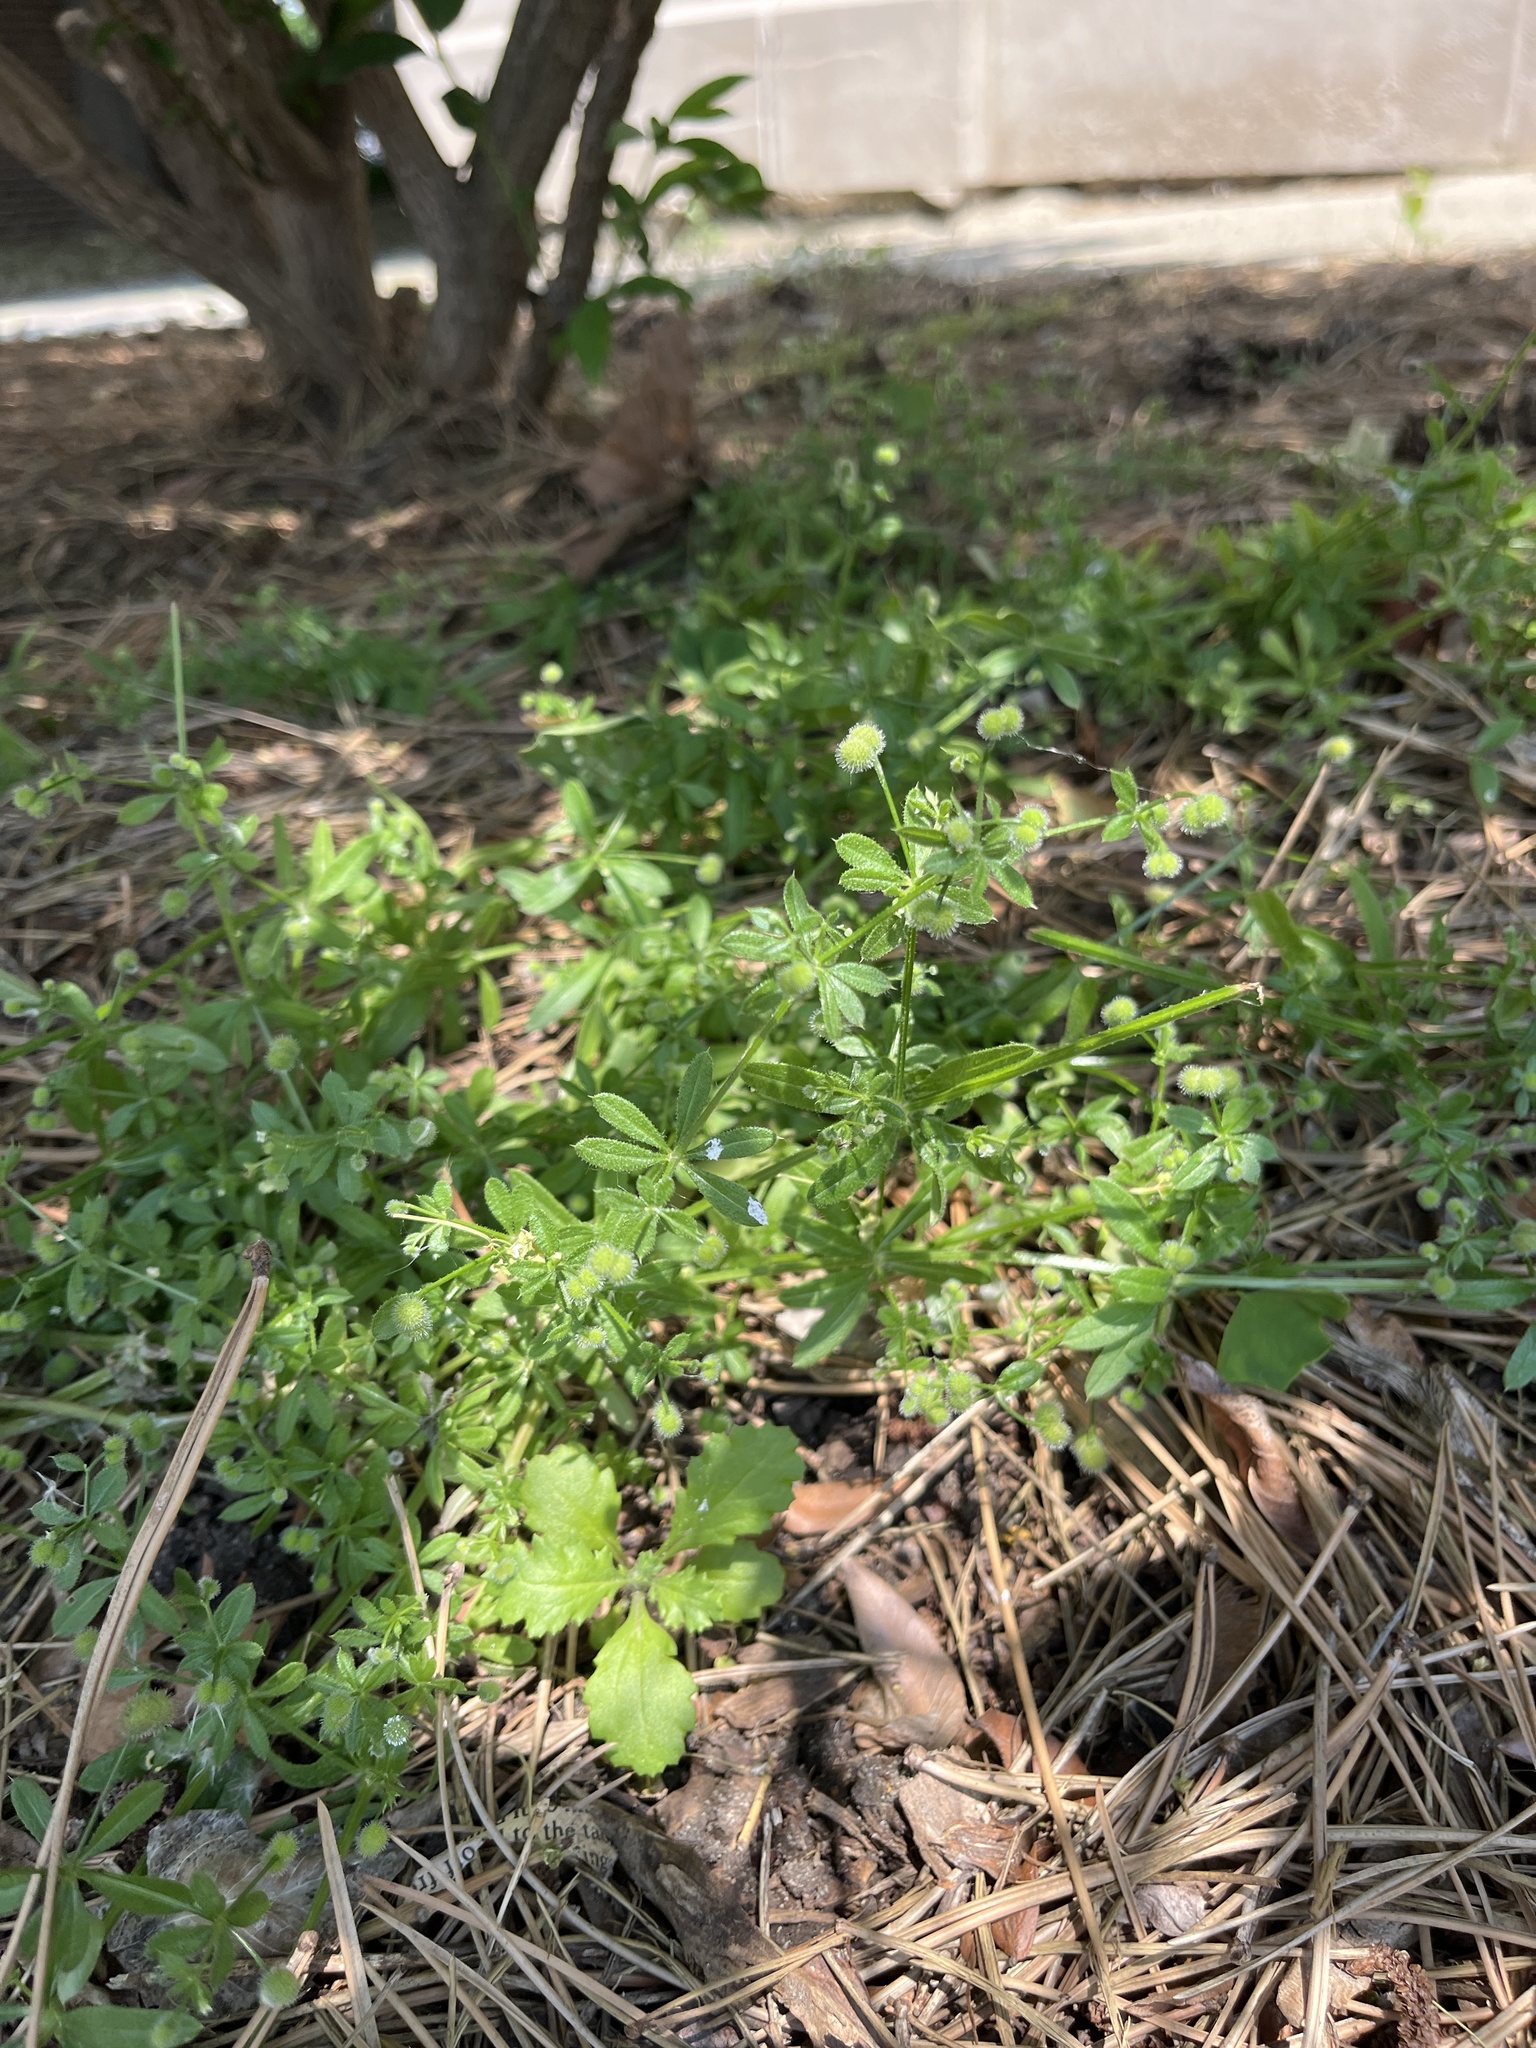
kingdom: Plantae
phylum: Tracheophyta
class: Magnoliopsida
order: Gentianales
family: Rubiaceae
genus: Galium
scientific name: Galium aparine
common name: Cleavers
